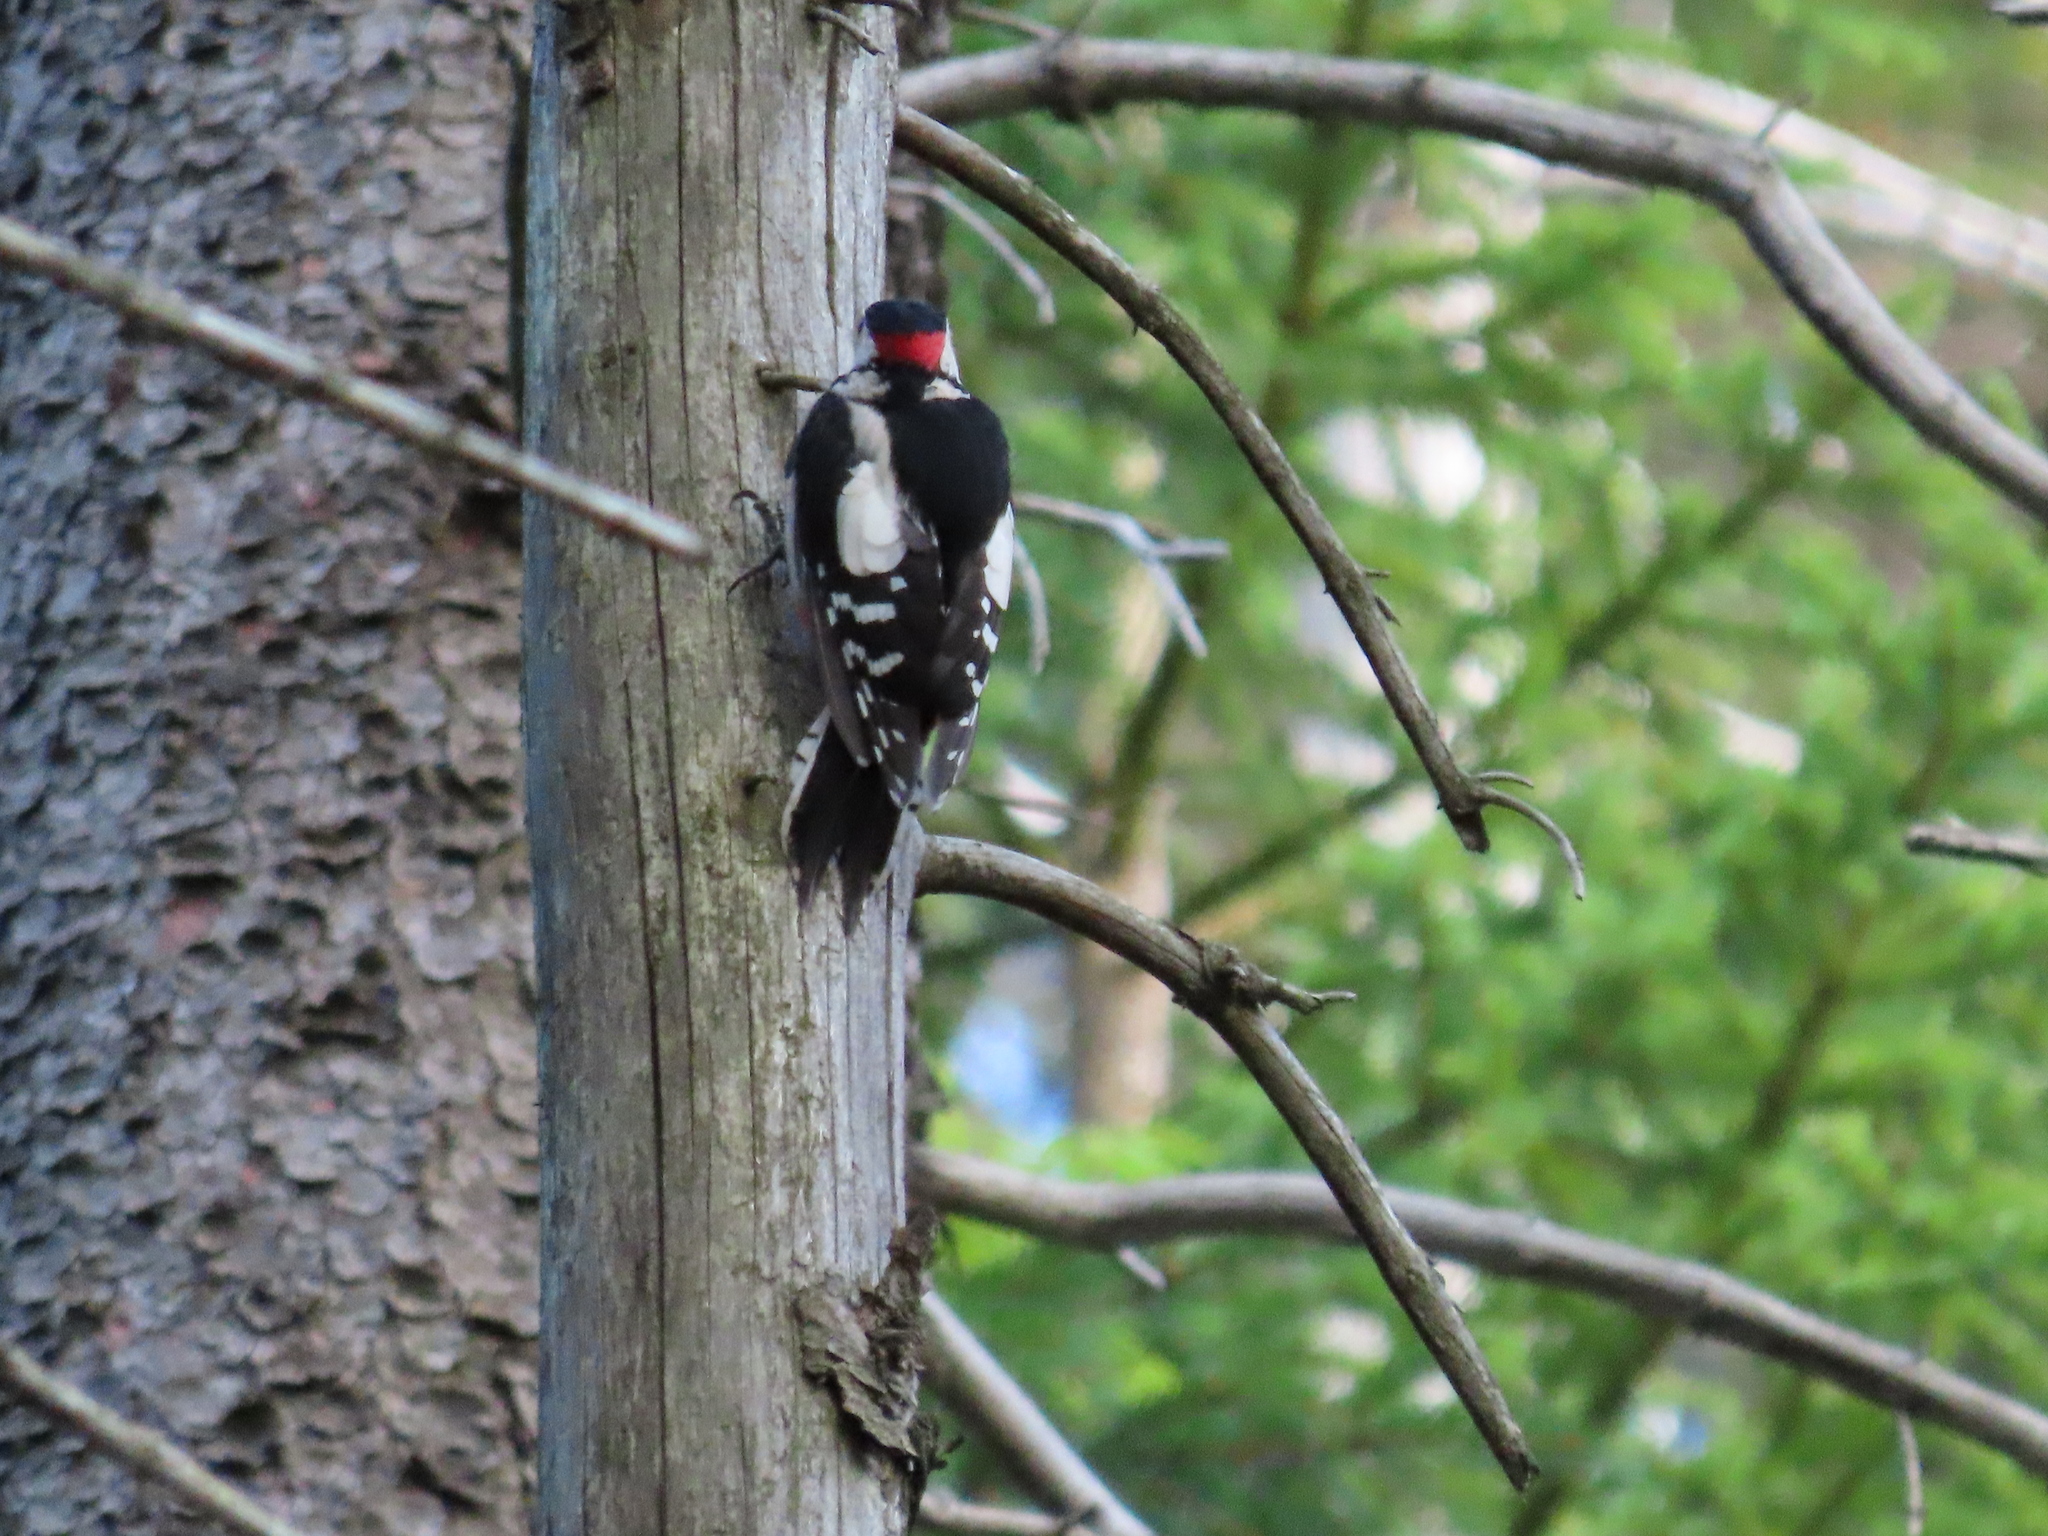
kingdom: Animalia
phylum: Chordata
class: Aves
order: Piciformes
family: Picidae
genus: Dendrocopos
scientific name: Dendrocopos major
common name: Great spotted woodpecker
